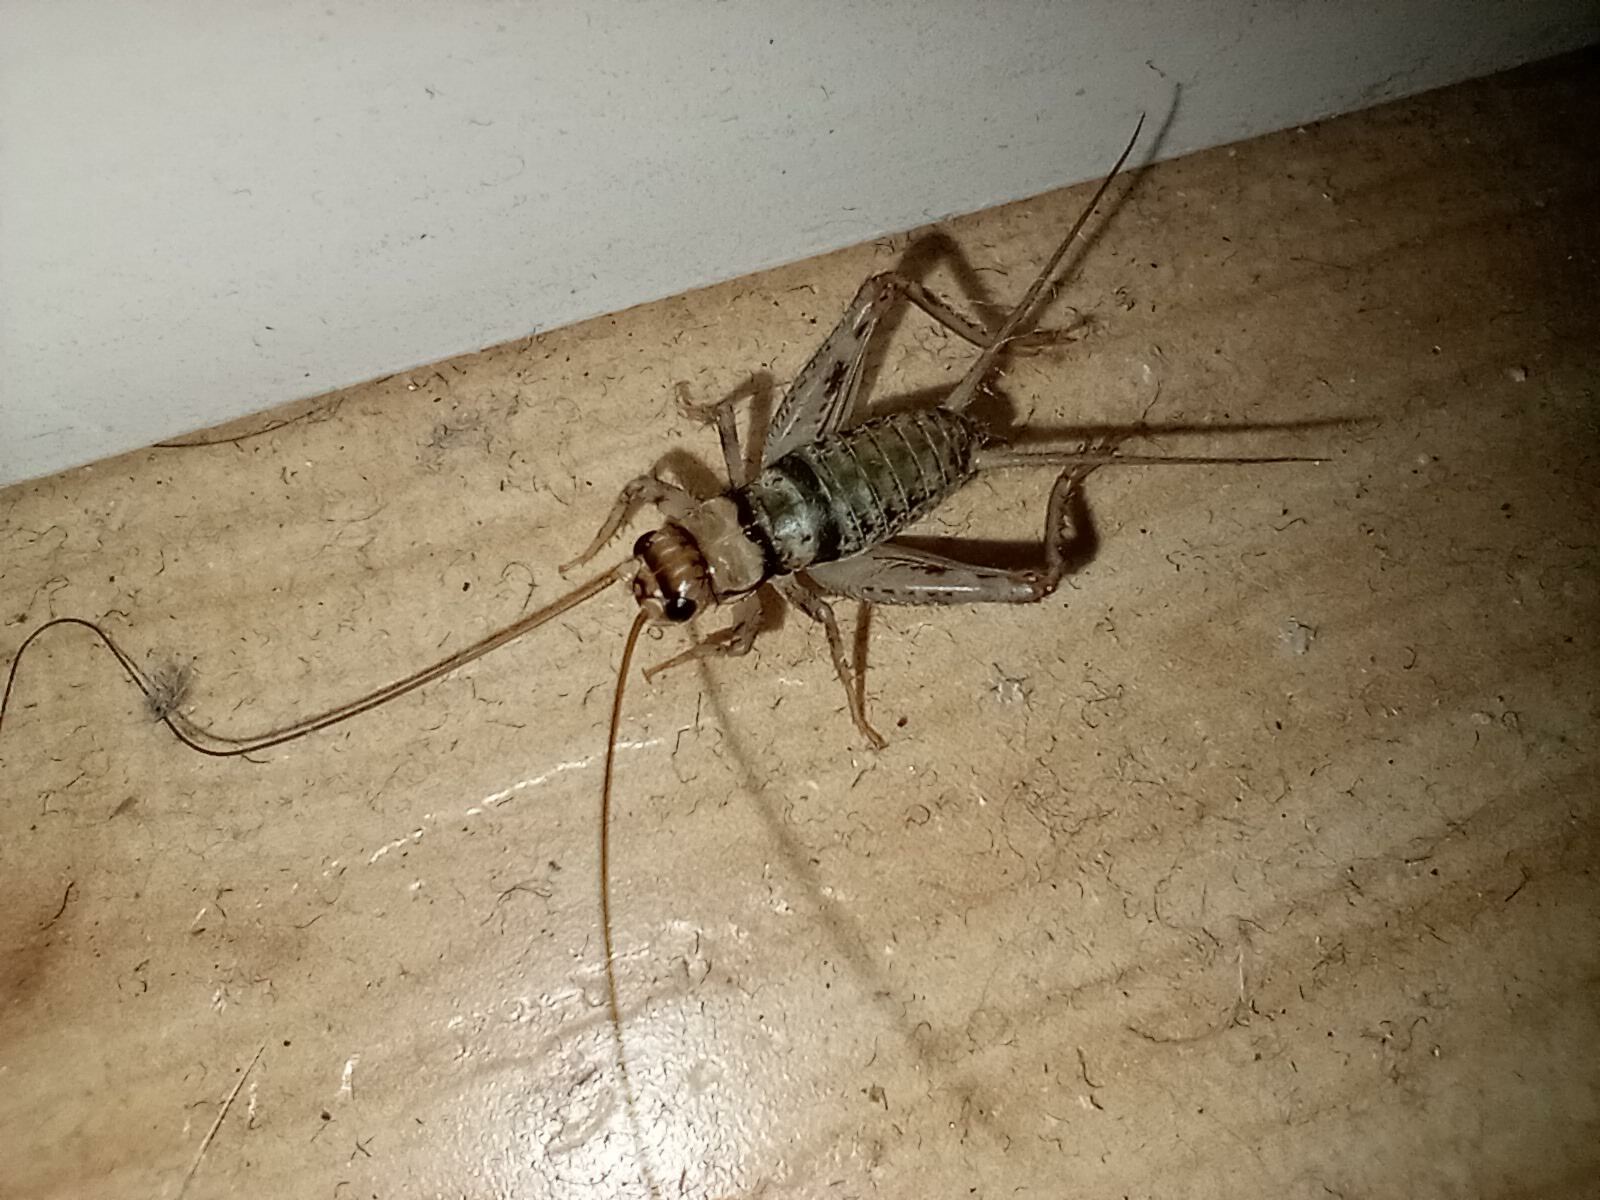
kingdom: Animalia
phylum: Arthropoda
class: Insecta
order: Orthoptera
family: Gryllidae
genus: Gryllodes
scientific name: Gryllodes sigillatus
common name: Tropical house cricket
